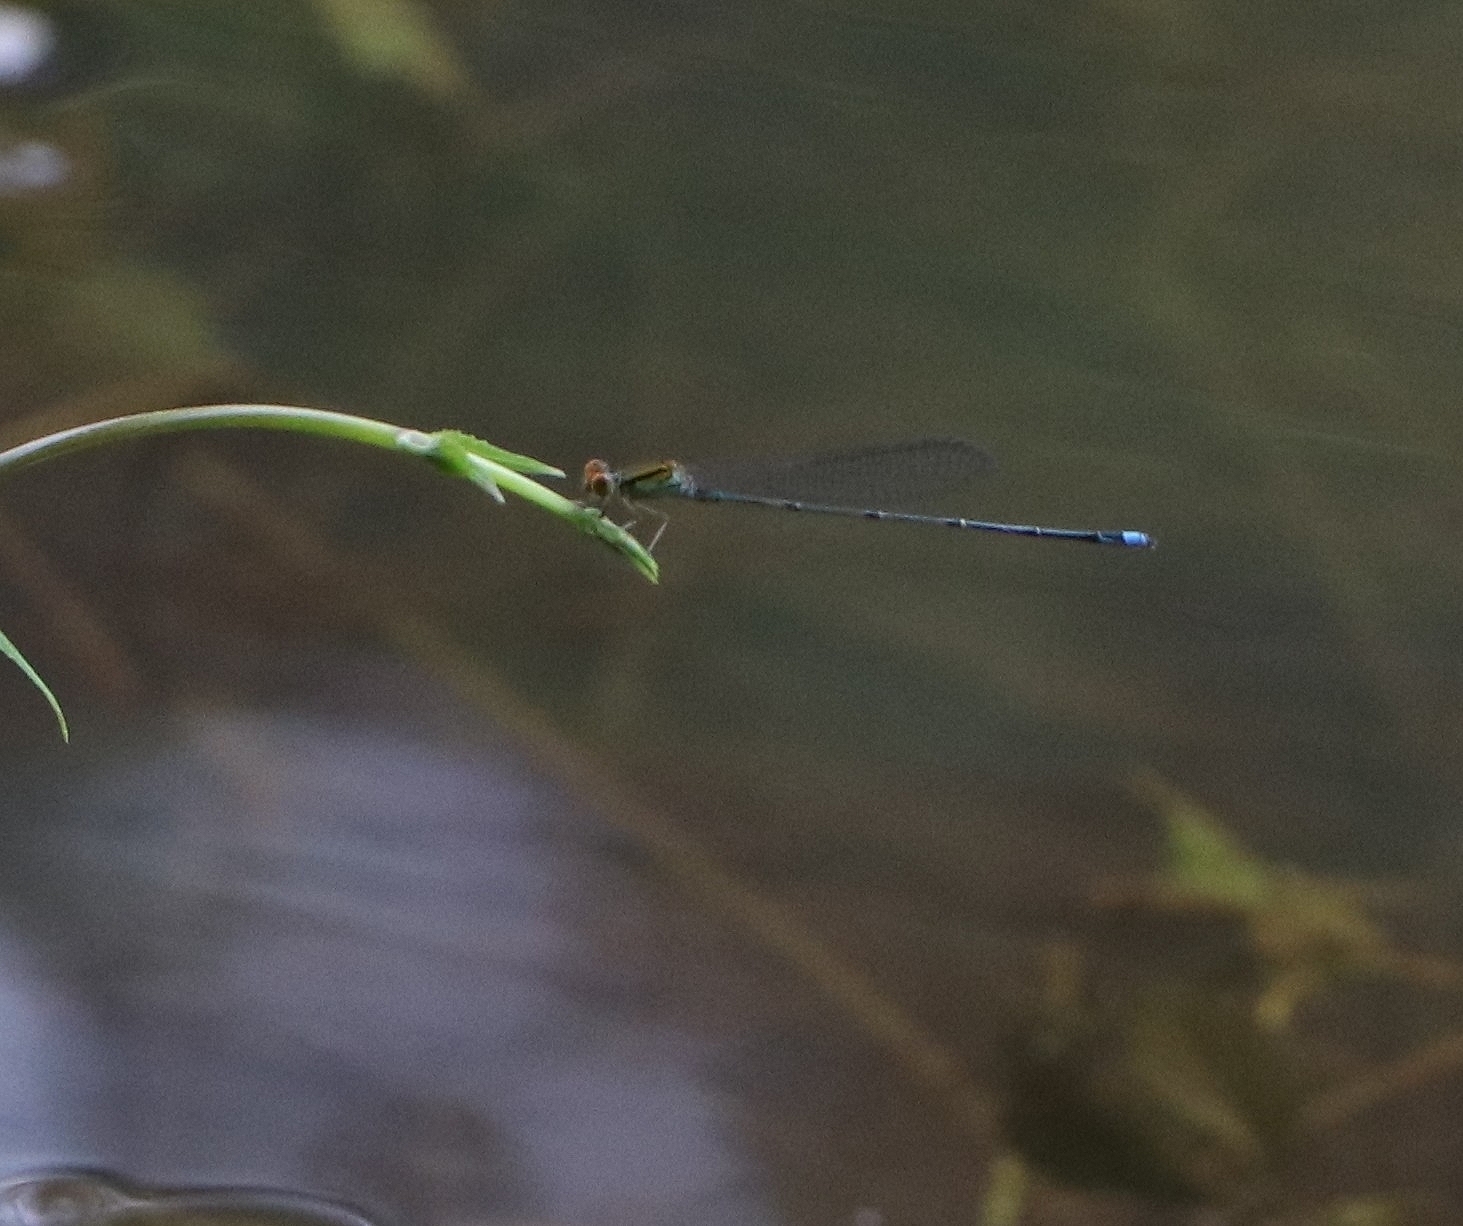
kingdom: Animalia
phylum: Arthropoda
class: Insecta
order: Odonata
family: Coenagrionidae
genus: Pseudagrion
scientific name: Pseudagrion rubriceps
